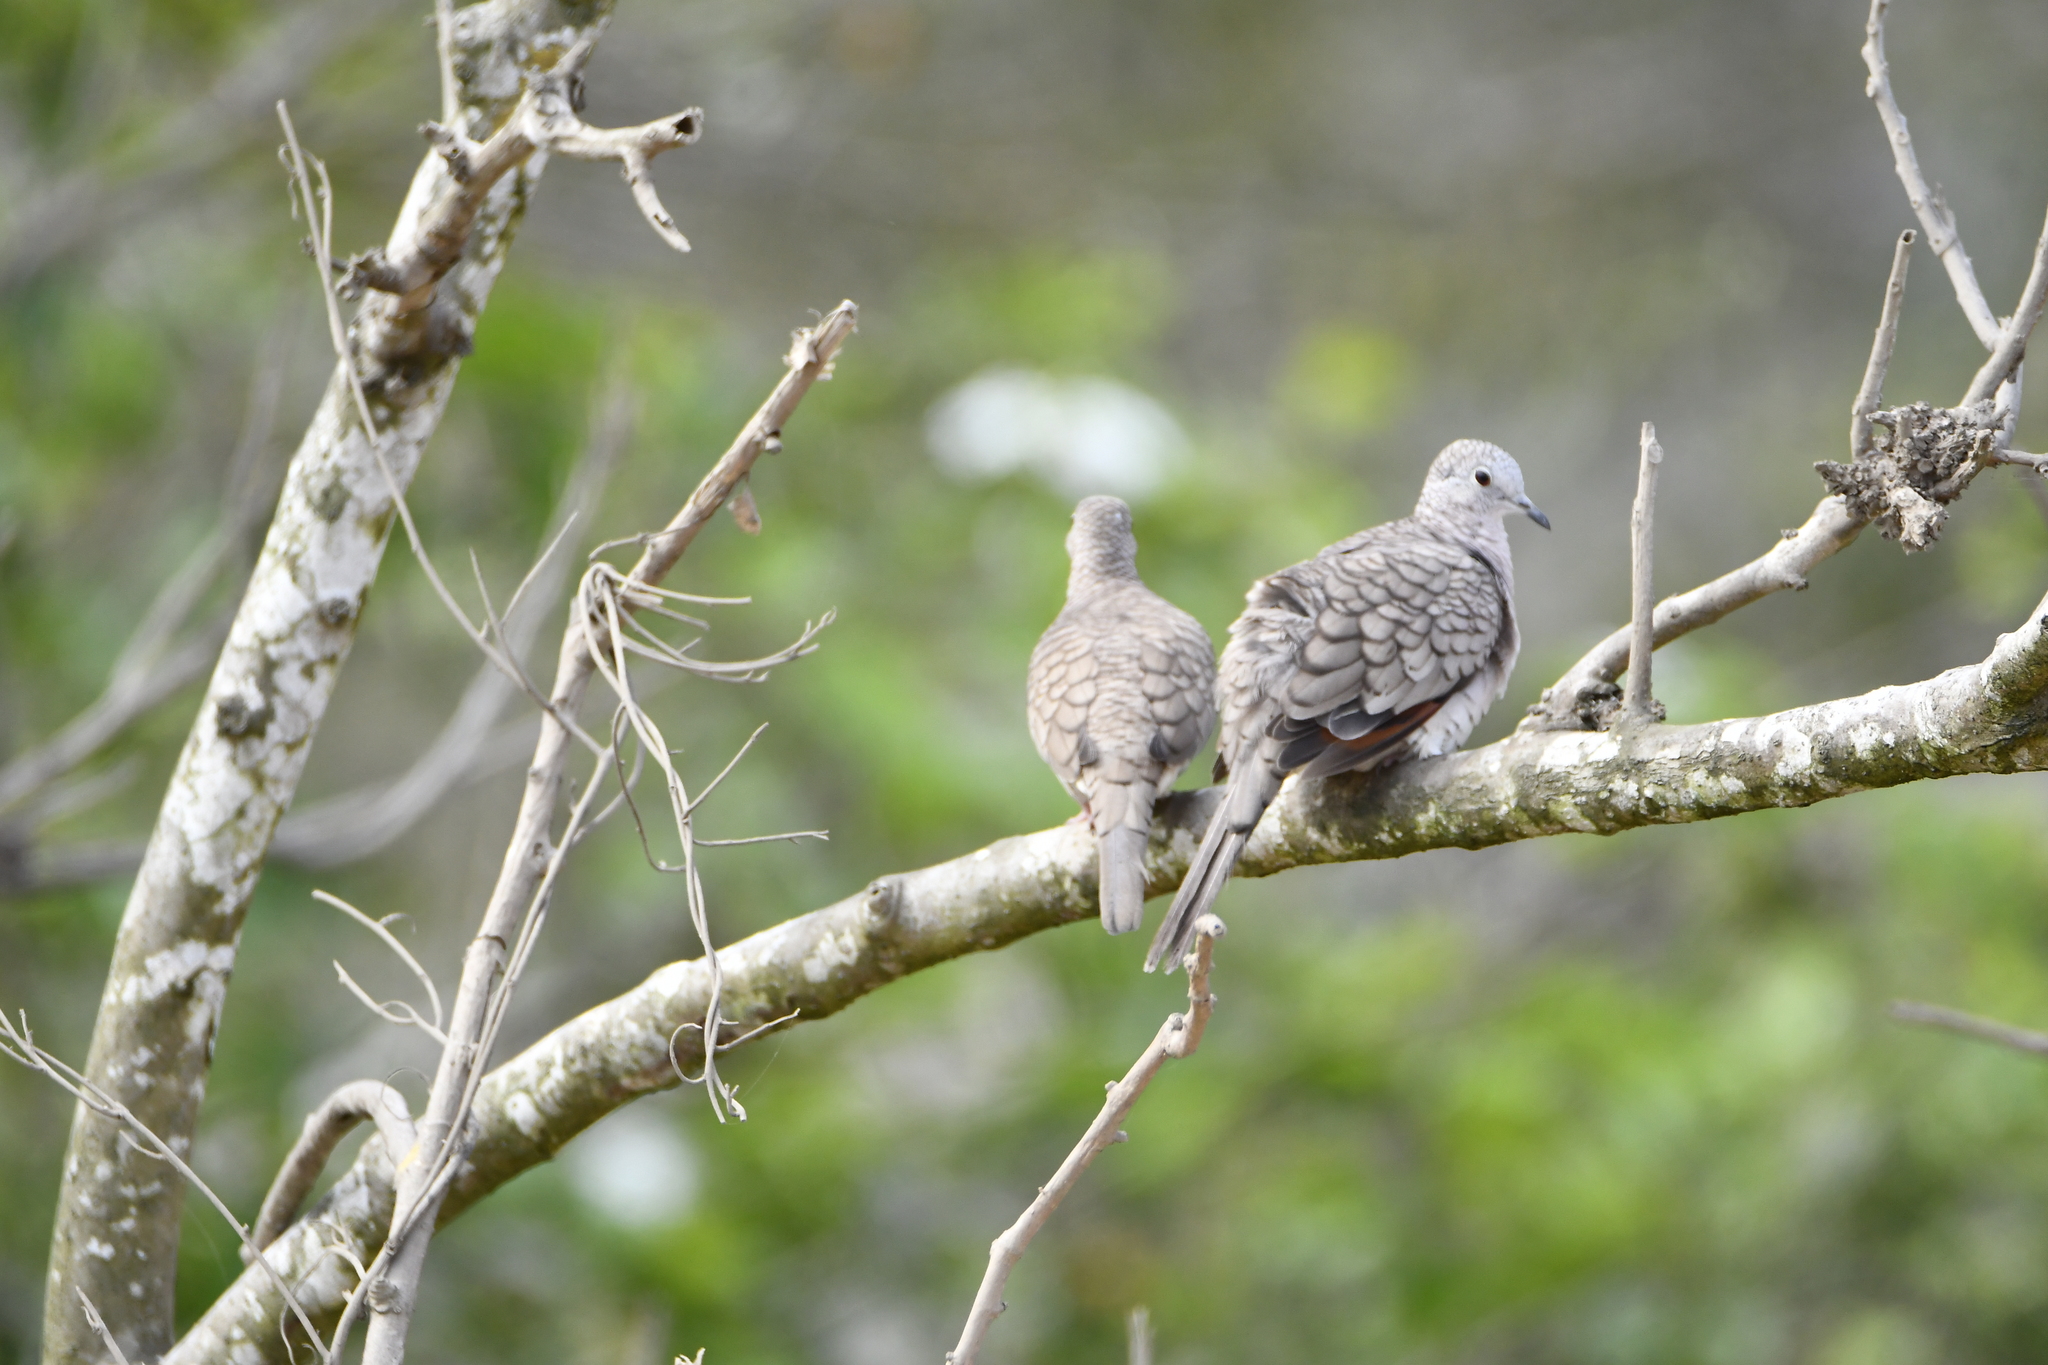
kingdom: Animalia
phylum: Chordata
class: Aves
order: Columbiformes
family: Columbidae
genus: Columbina
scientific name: Columbina inca
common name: Inca dove
